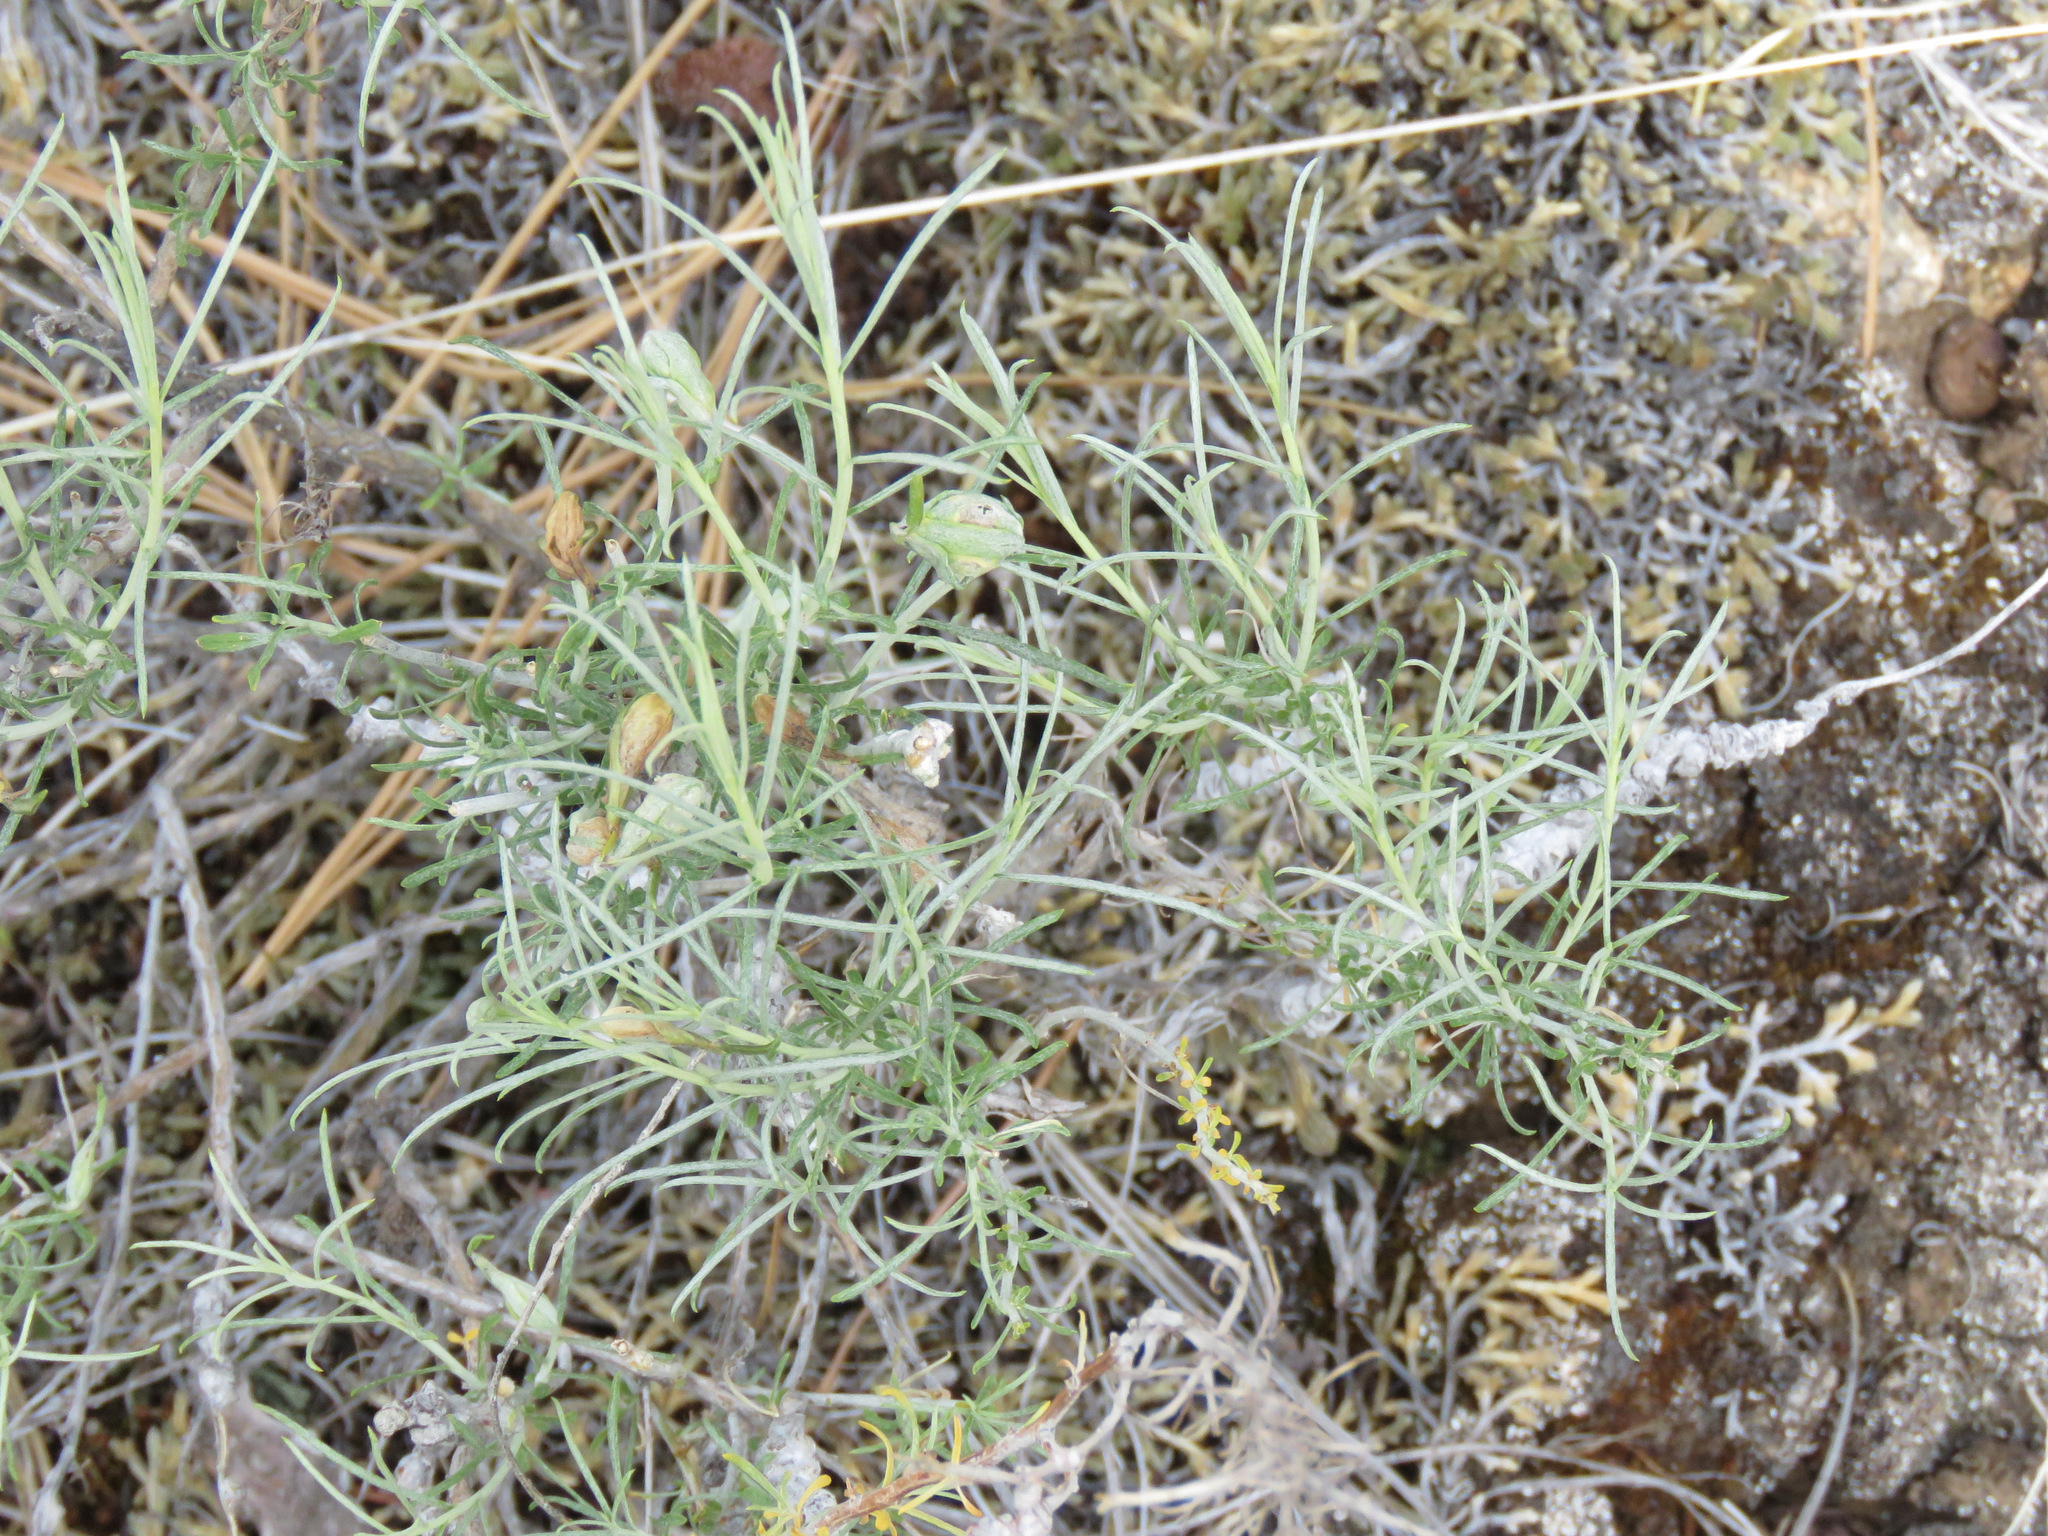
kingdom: Plantae
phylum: Tracheophyta
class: Magnoliopsida
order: Asterales
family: Asteraceae
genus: Ericameria
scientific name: Ericameria nauseosa
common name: Rubber rabbitbrush
